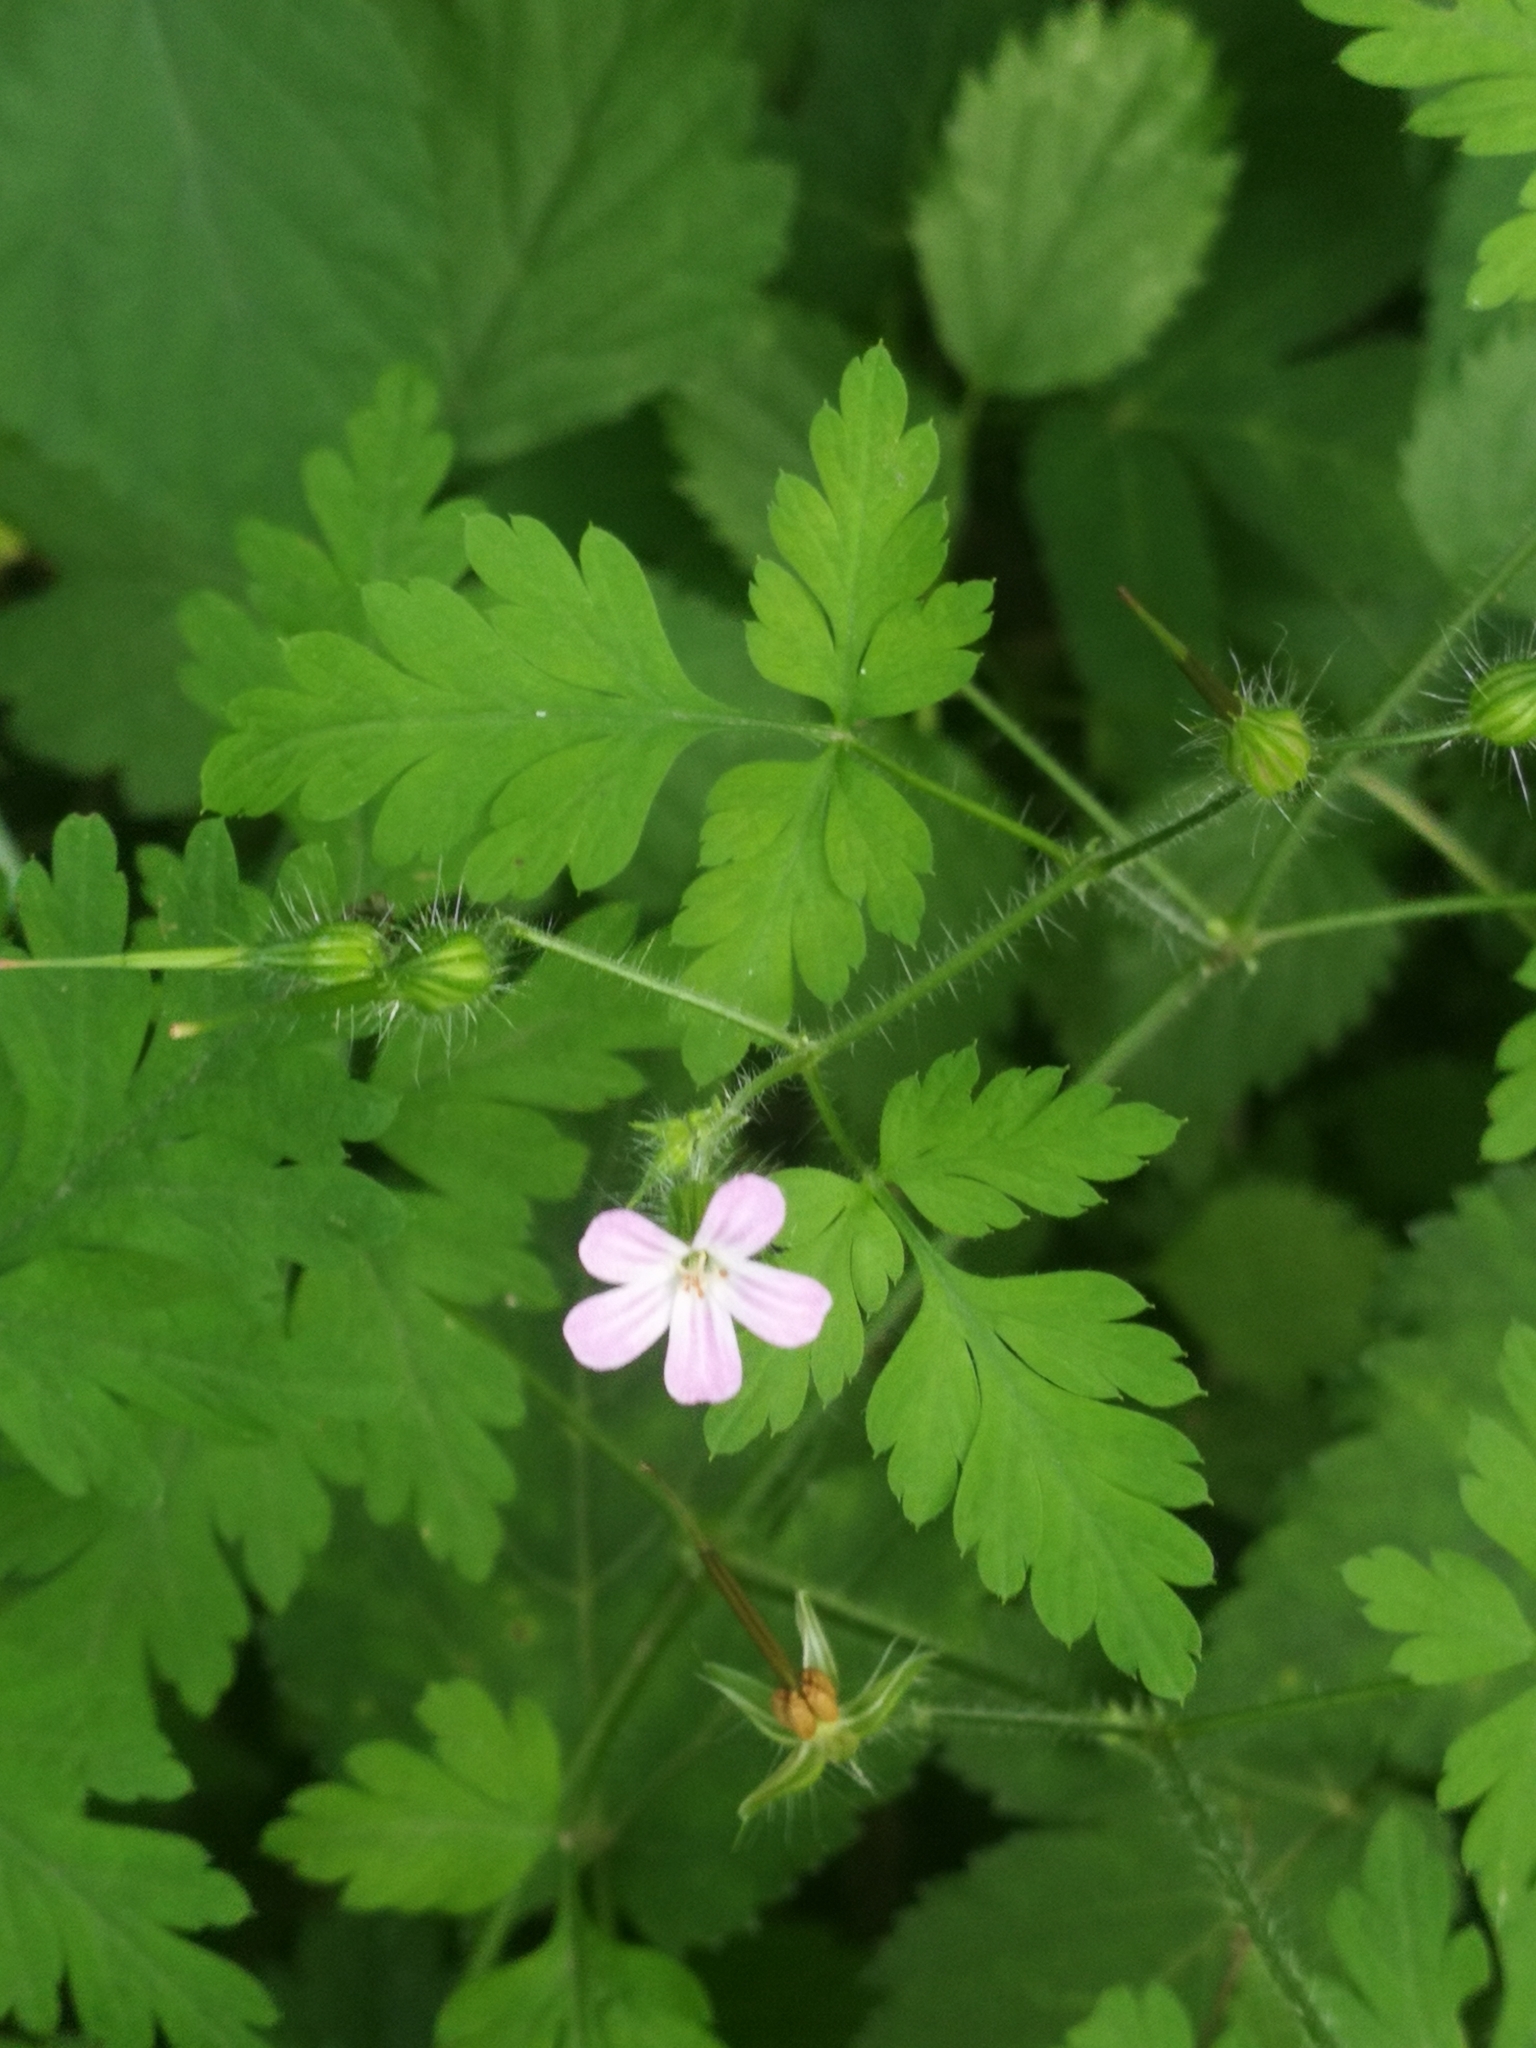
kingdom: Plantae
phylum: Tracheophyta
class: Magnoliopsida
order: Geraniales
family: Geraniaceae
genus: Geranium
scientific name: Geranium robertianum
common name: Herb-robert
